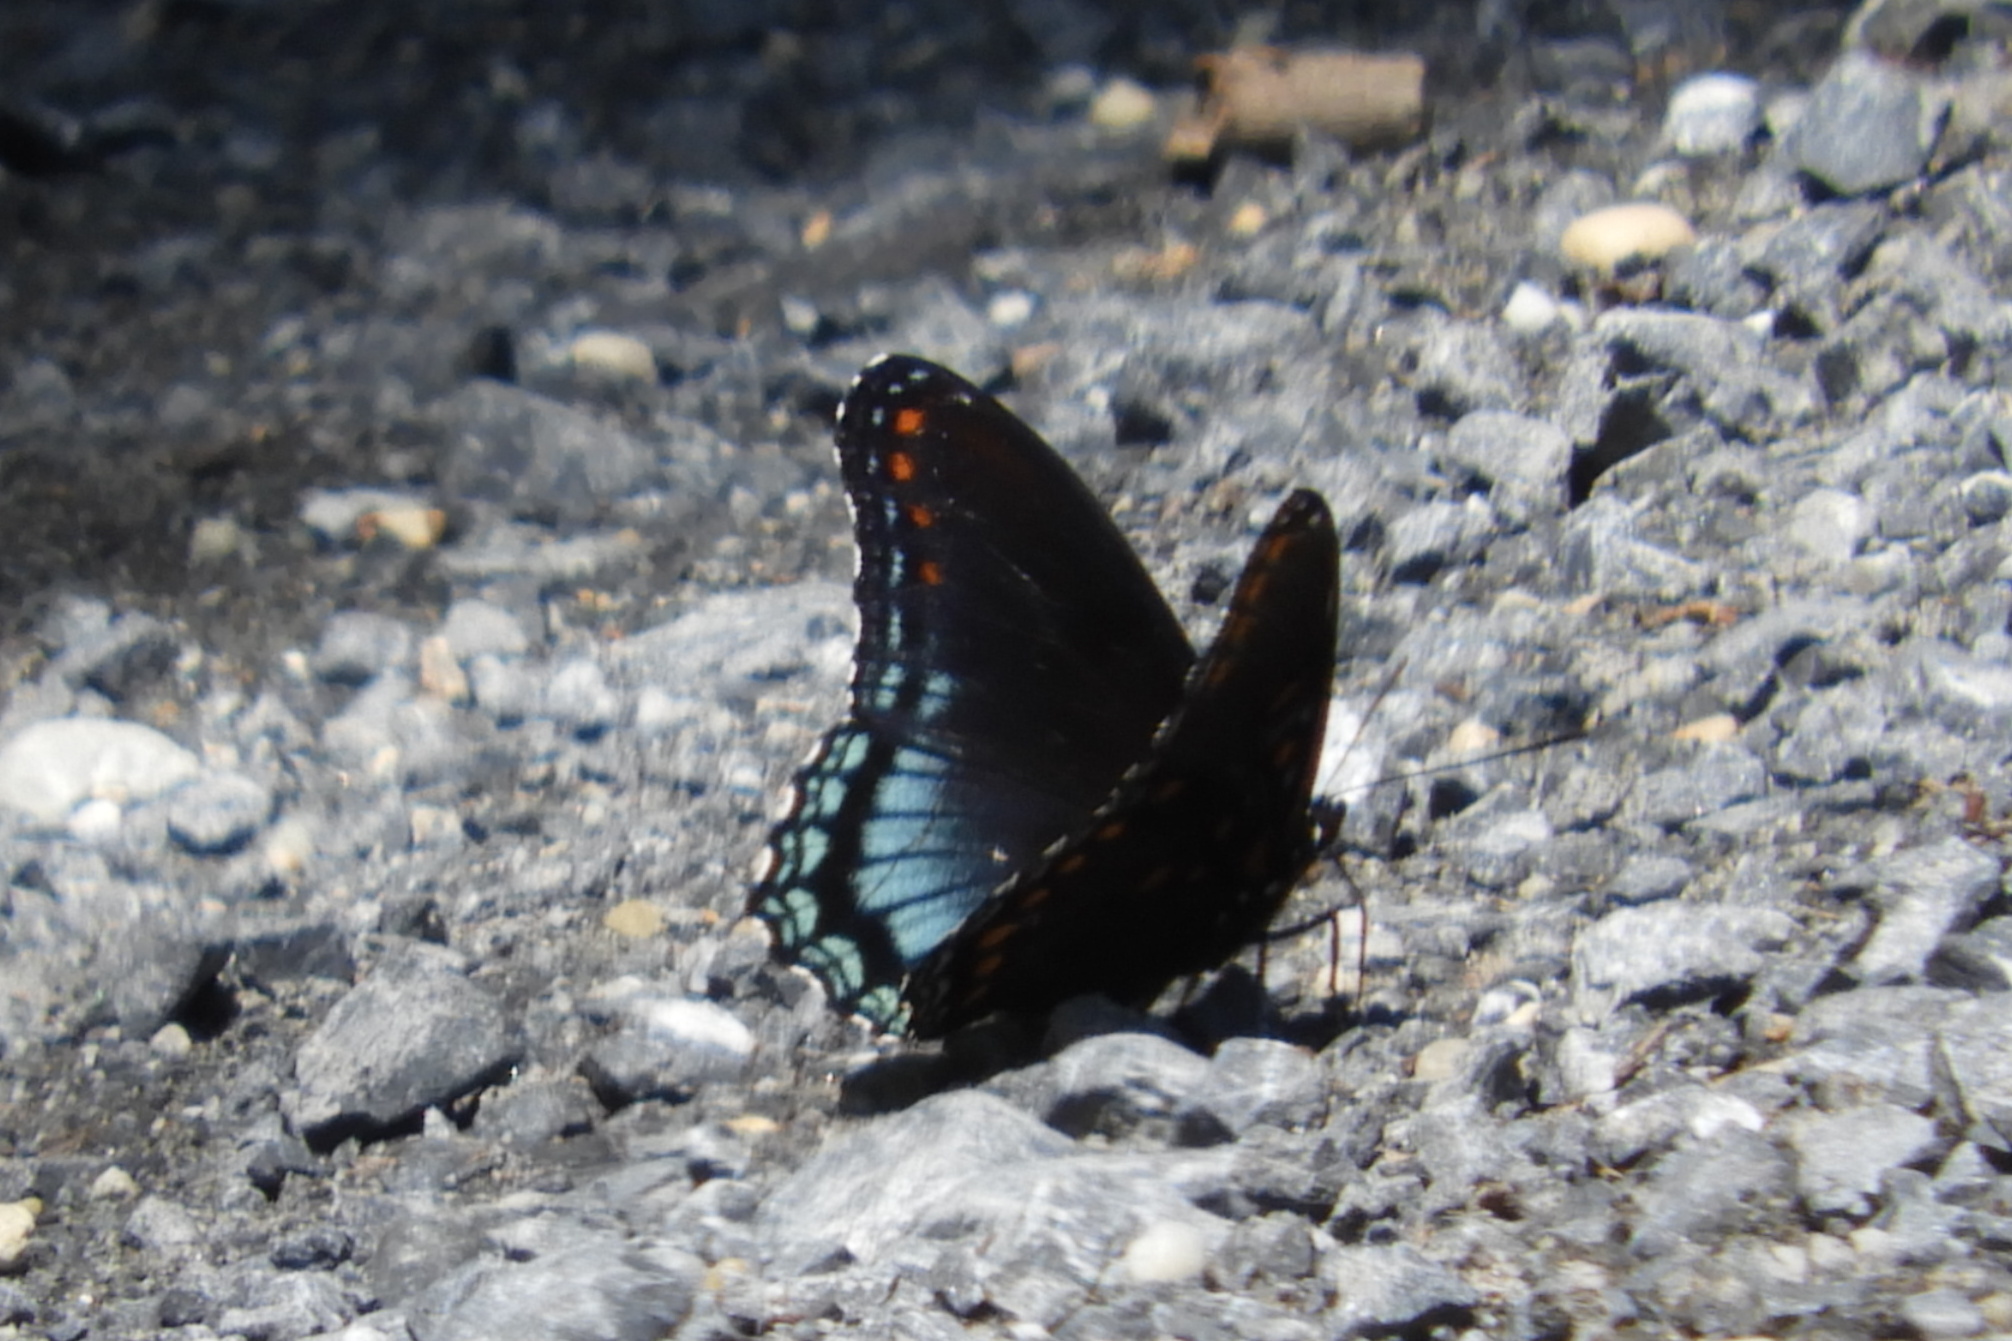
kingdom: Animalia
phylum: Arthropoda
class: Insecta
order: Lepidoptera
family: Nymphalidae
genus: Limenitis
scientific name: Limenitis astyanax
